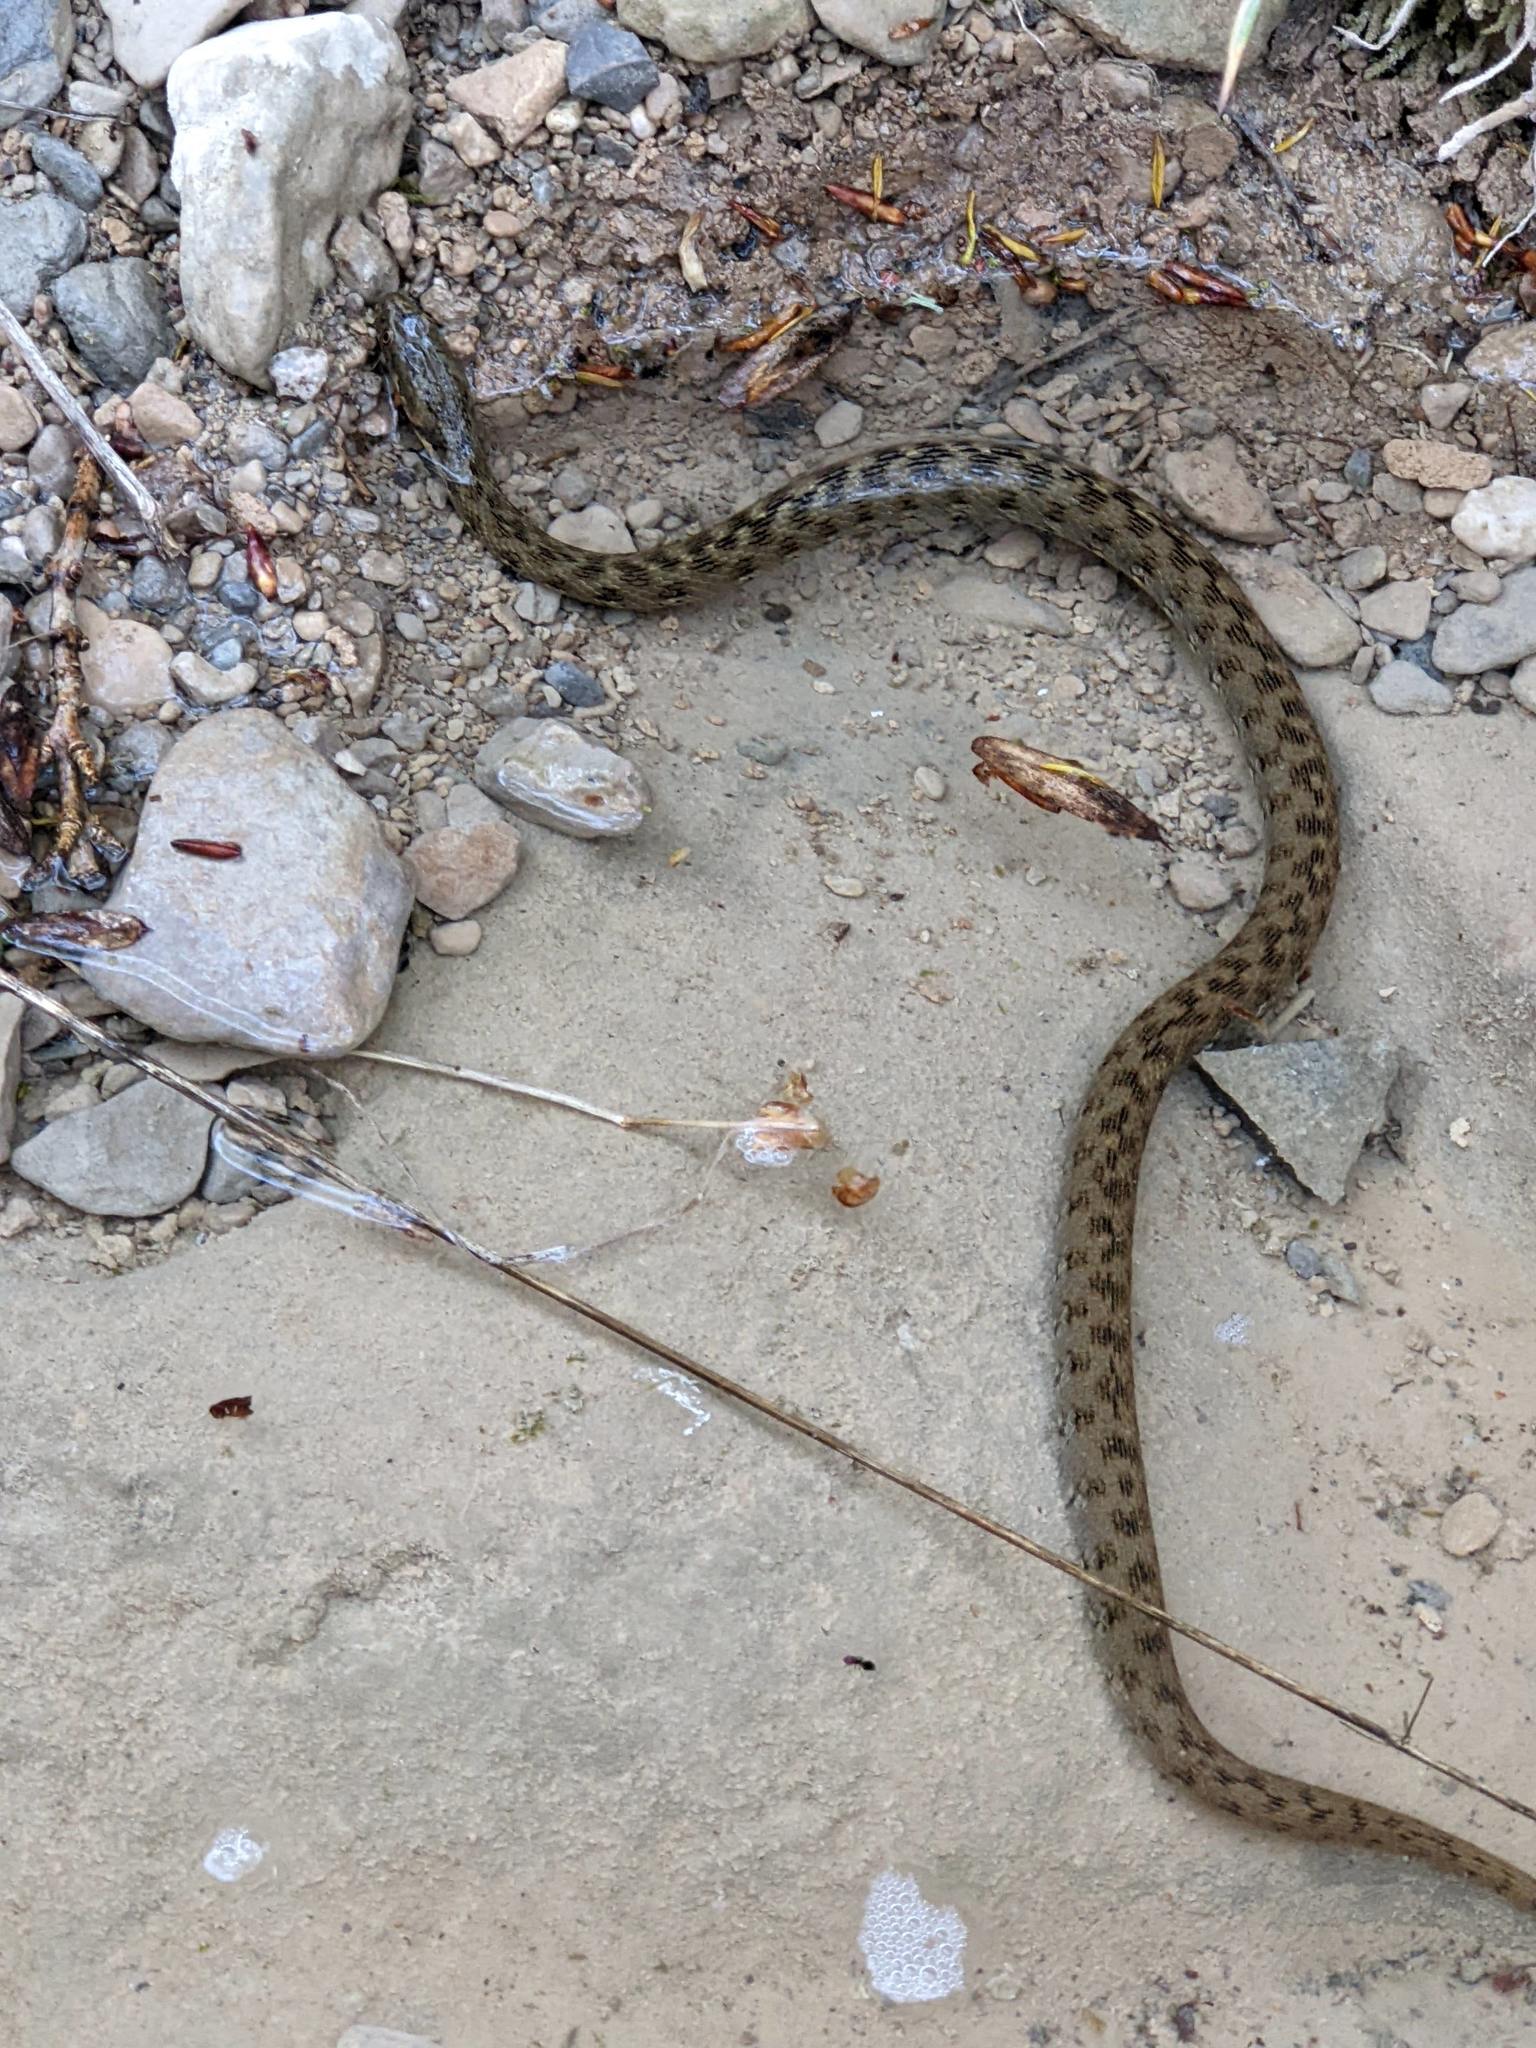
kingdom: Animalia
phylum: Chordata
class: Squamata
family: Colubridae
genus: Natrix
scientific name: Natrix maura
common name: Viperine water snake
